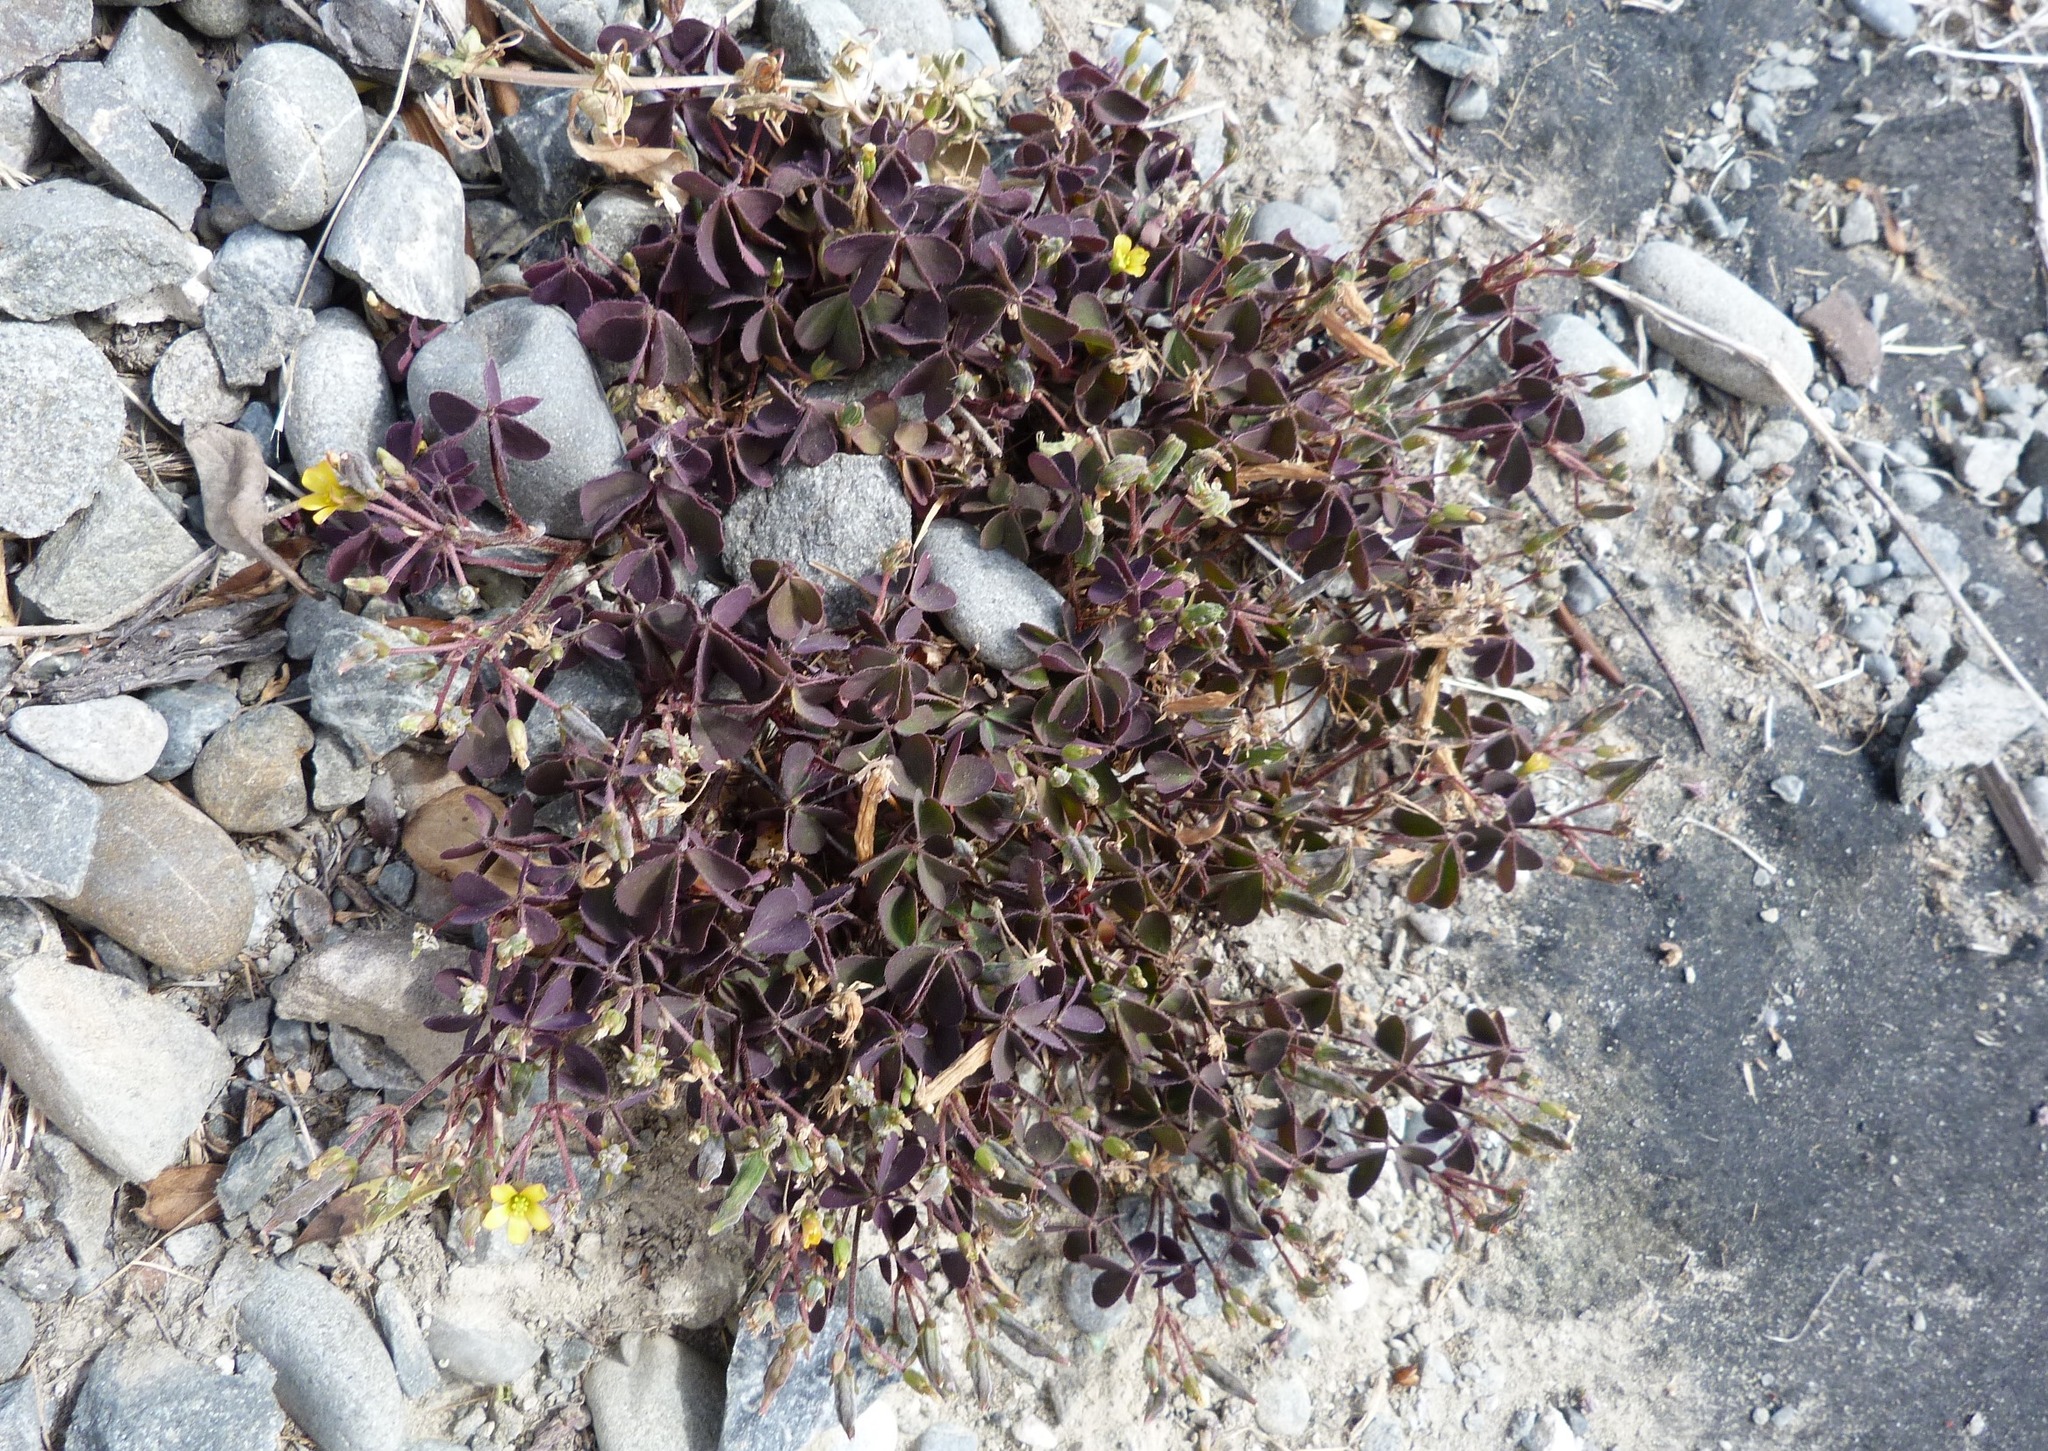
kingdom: Plantae
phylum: Tracheophyta
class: Magnoliopsida
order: Oxalidales
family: Oxalidaceae
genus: Oxalis
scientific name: Oxalis corniculata
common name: Procumbent yellow-sorrel
